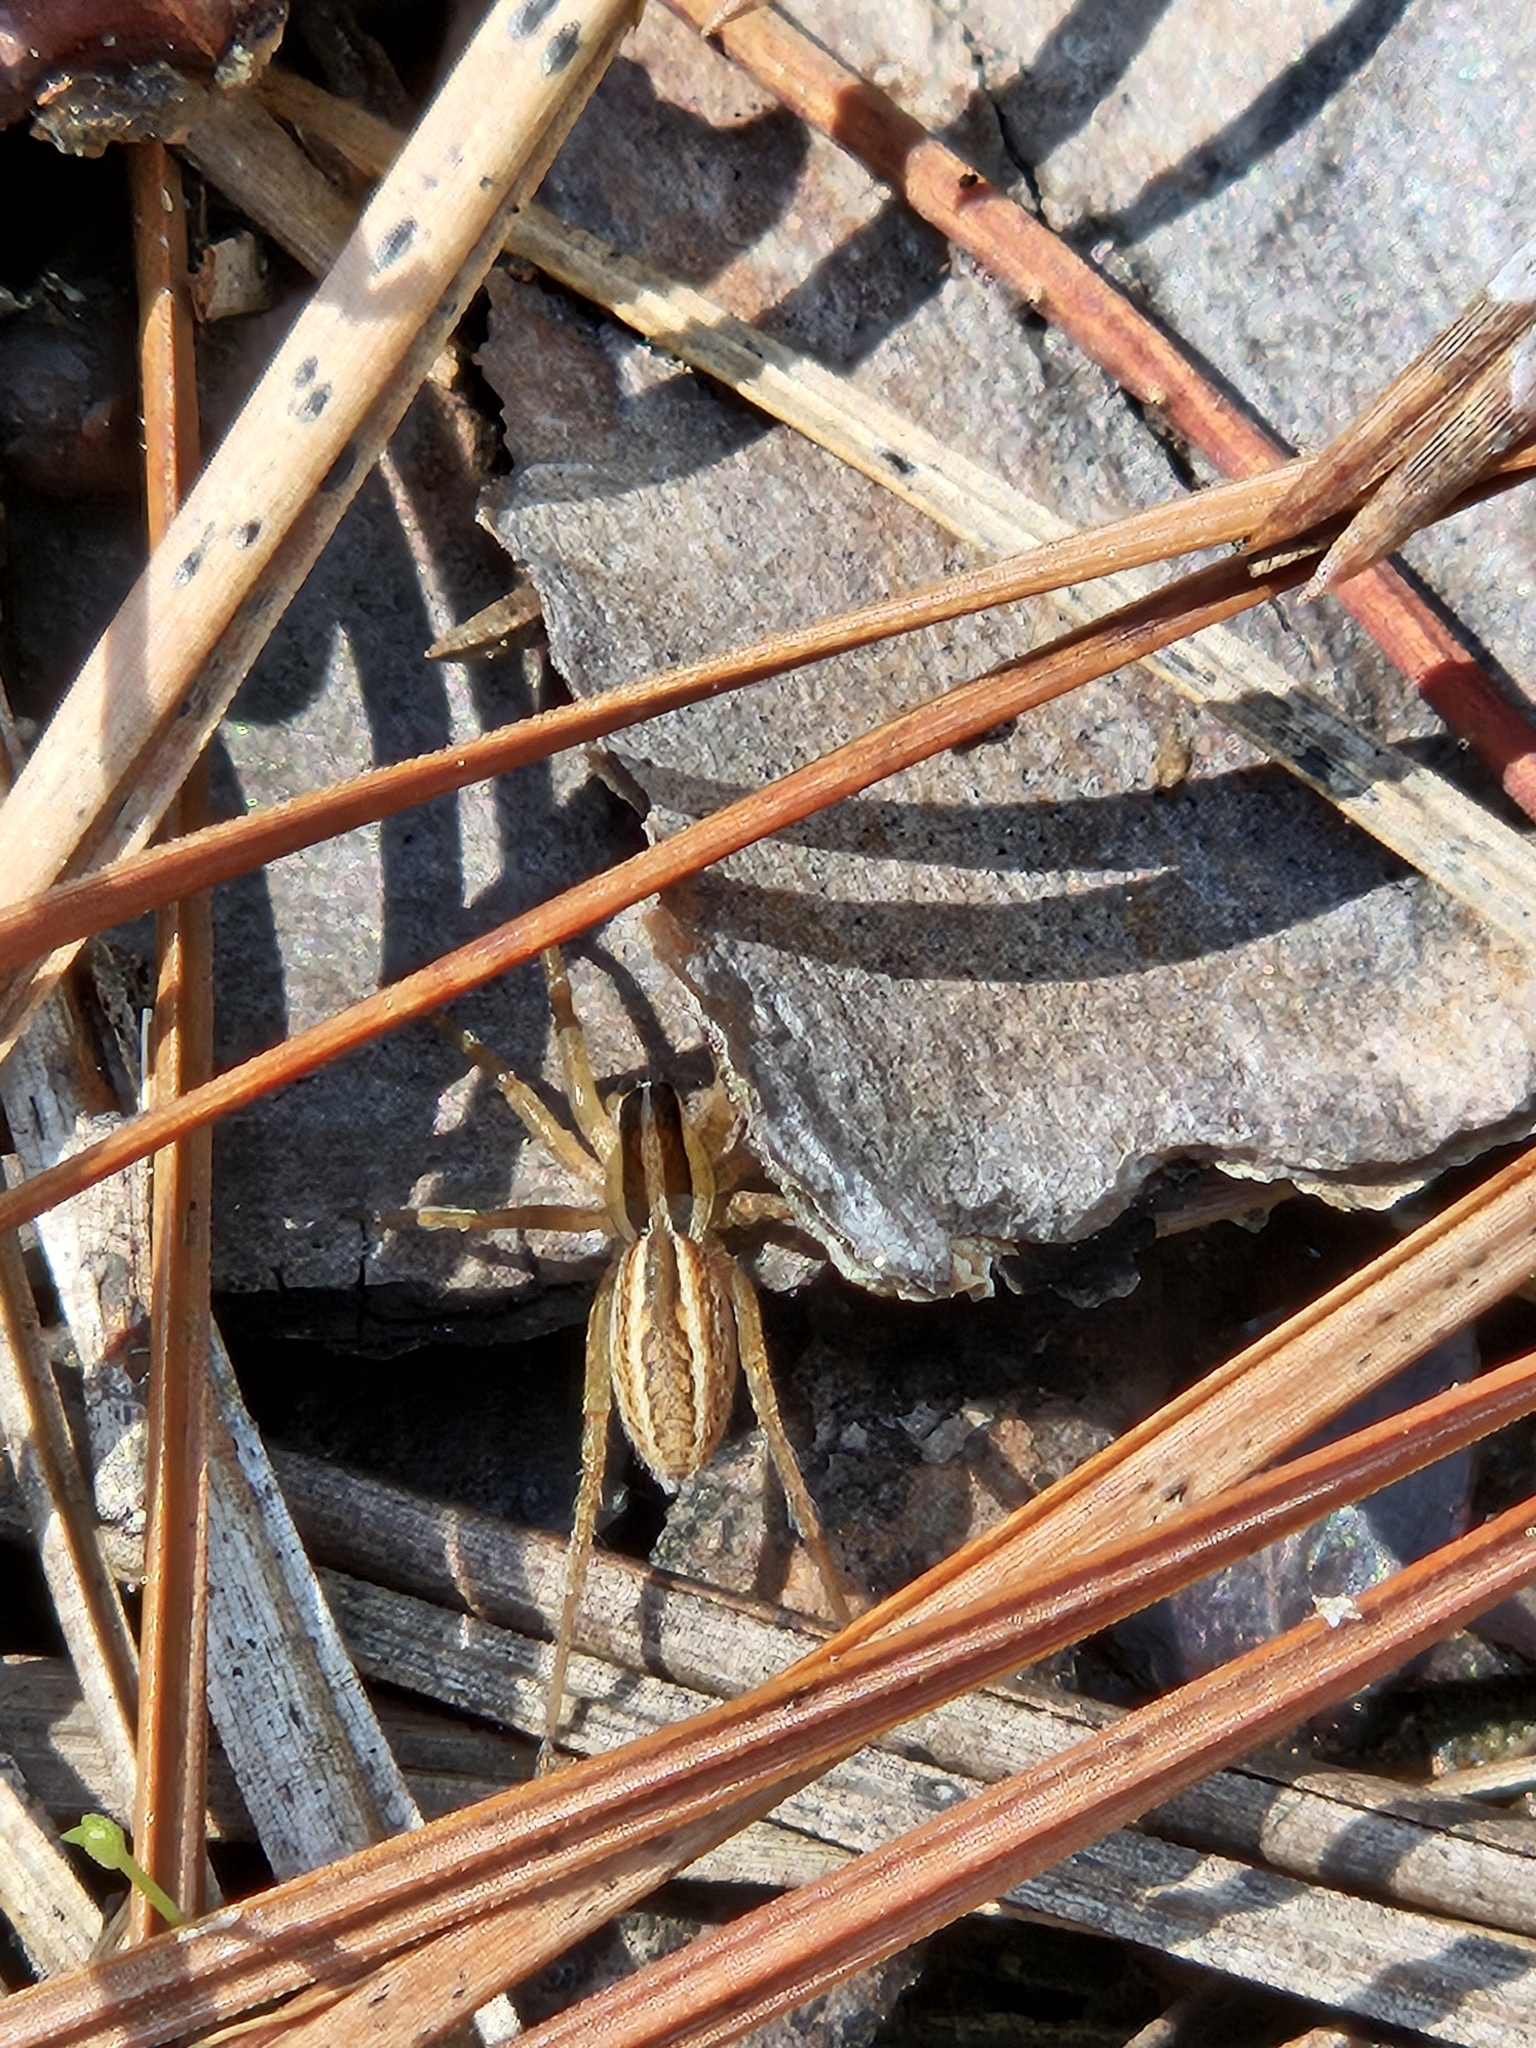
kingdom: Animalia
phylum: Arthropoda
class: Arachnida
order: Araneae
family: Lycosidae
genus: Rabidosa
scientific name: Rabidosa rabida
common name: Rabid wolf spider
